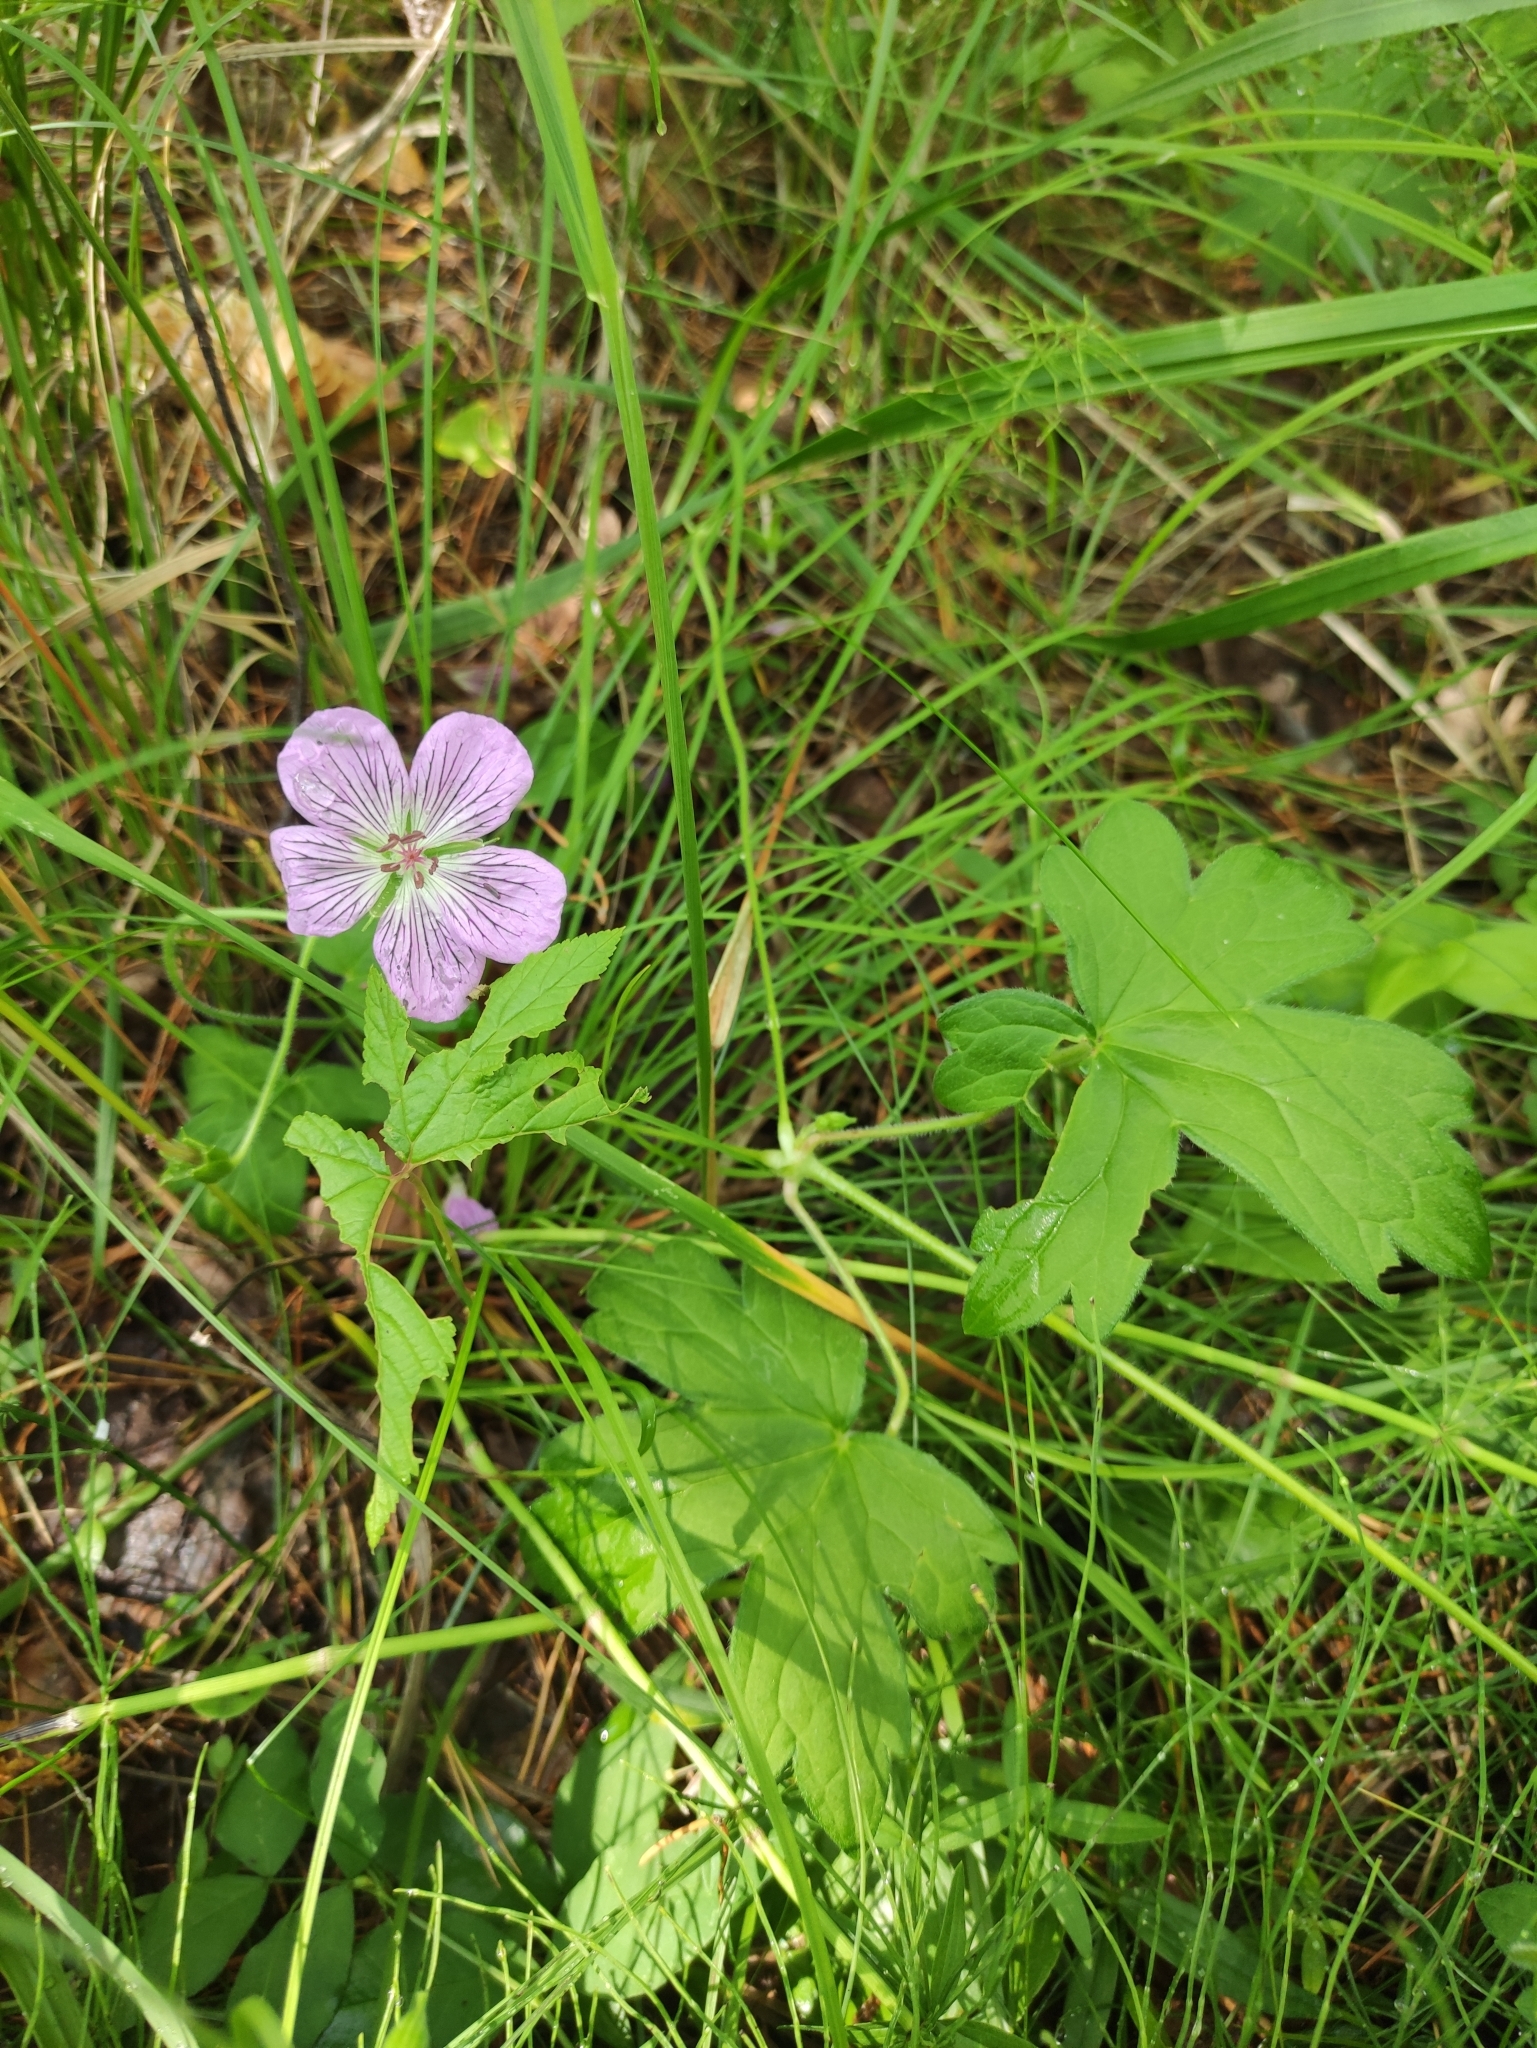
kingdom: Plantae
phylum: Tracheophyta
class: Magnoliopsida
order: Geraniales
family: Geraniaceae
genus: Geranium
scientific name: Geranium wlassovianum
